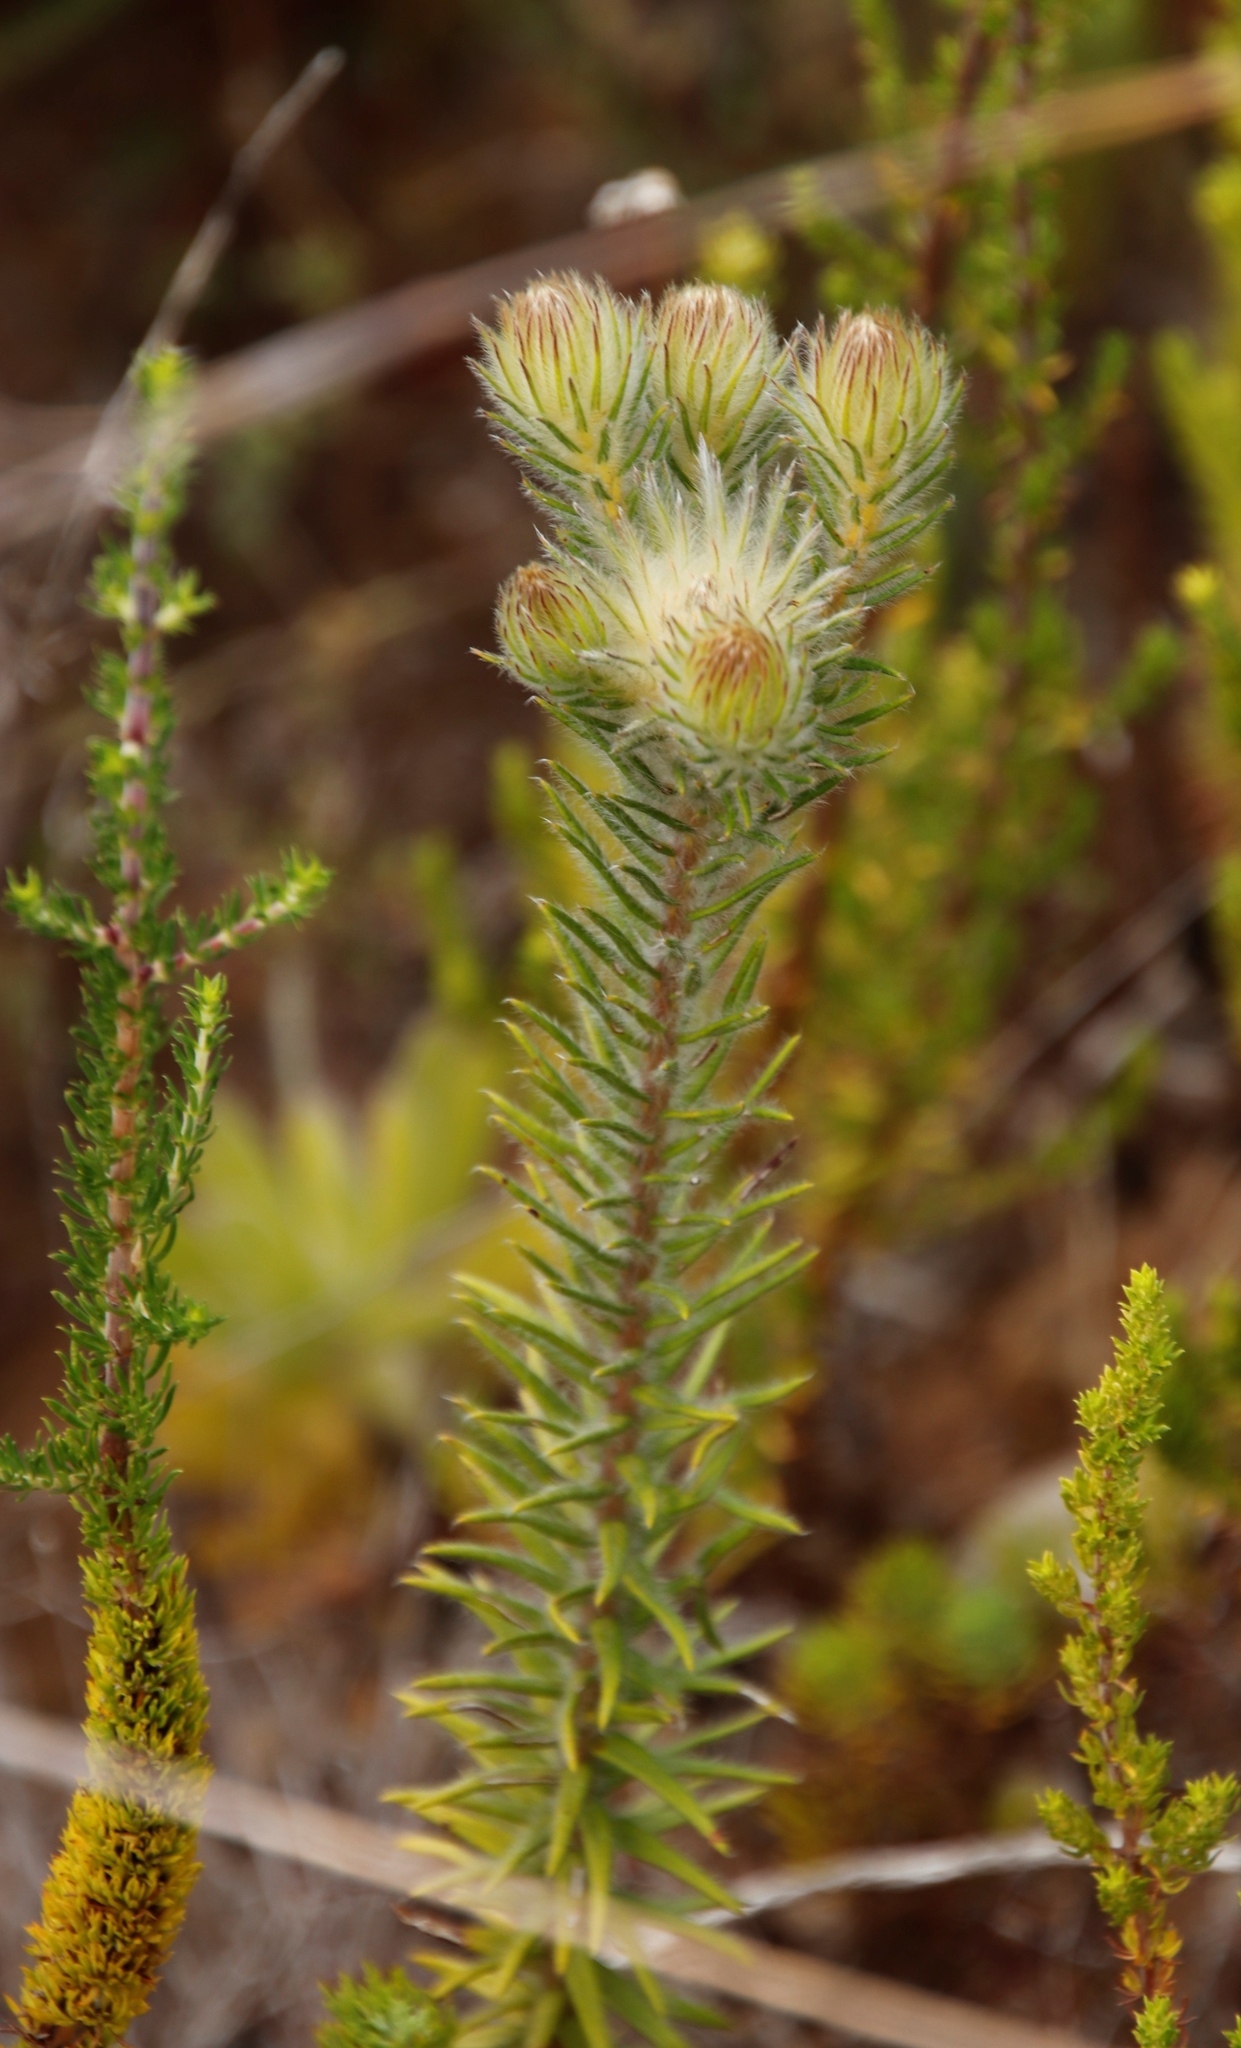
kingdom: Plantae
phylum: Tracheophyta
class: Magnoliopsida
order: Rosales
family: Rhamnaceae
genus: Phylica
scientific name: Phylica pubescens
